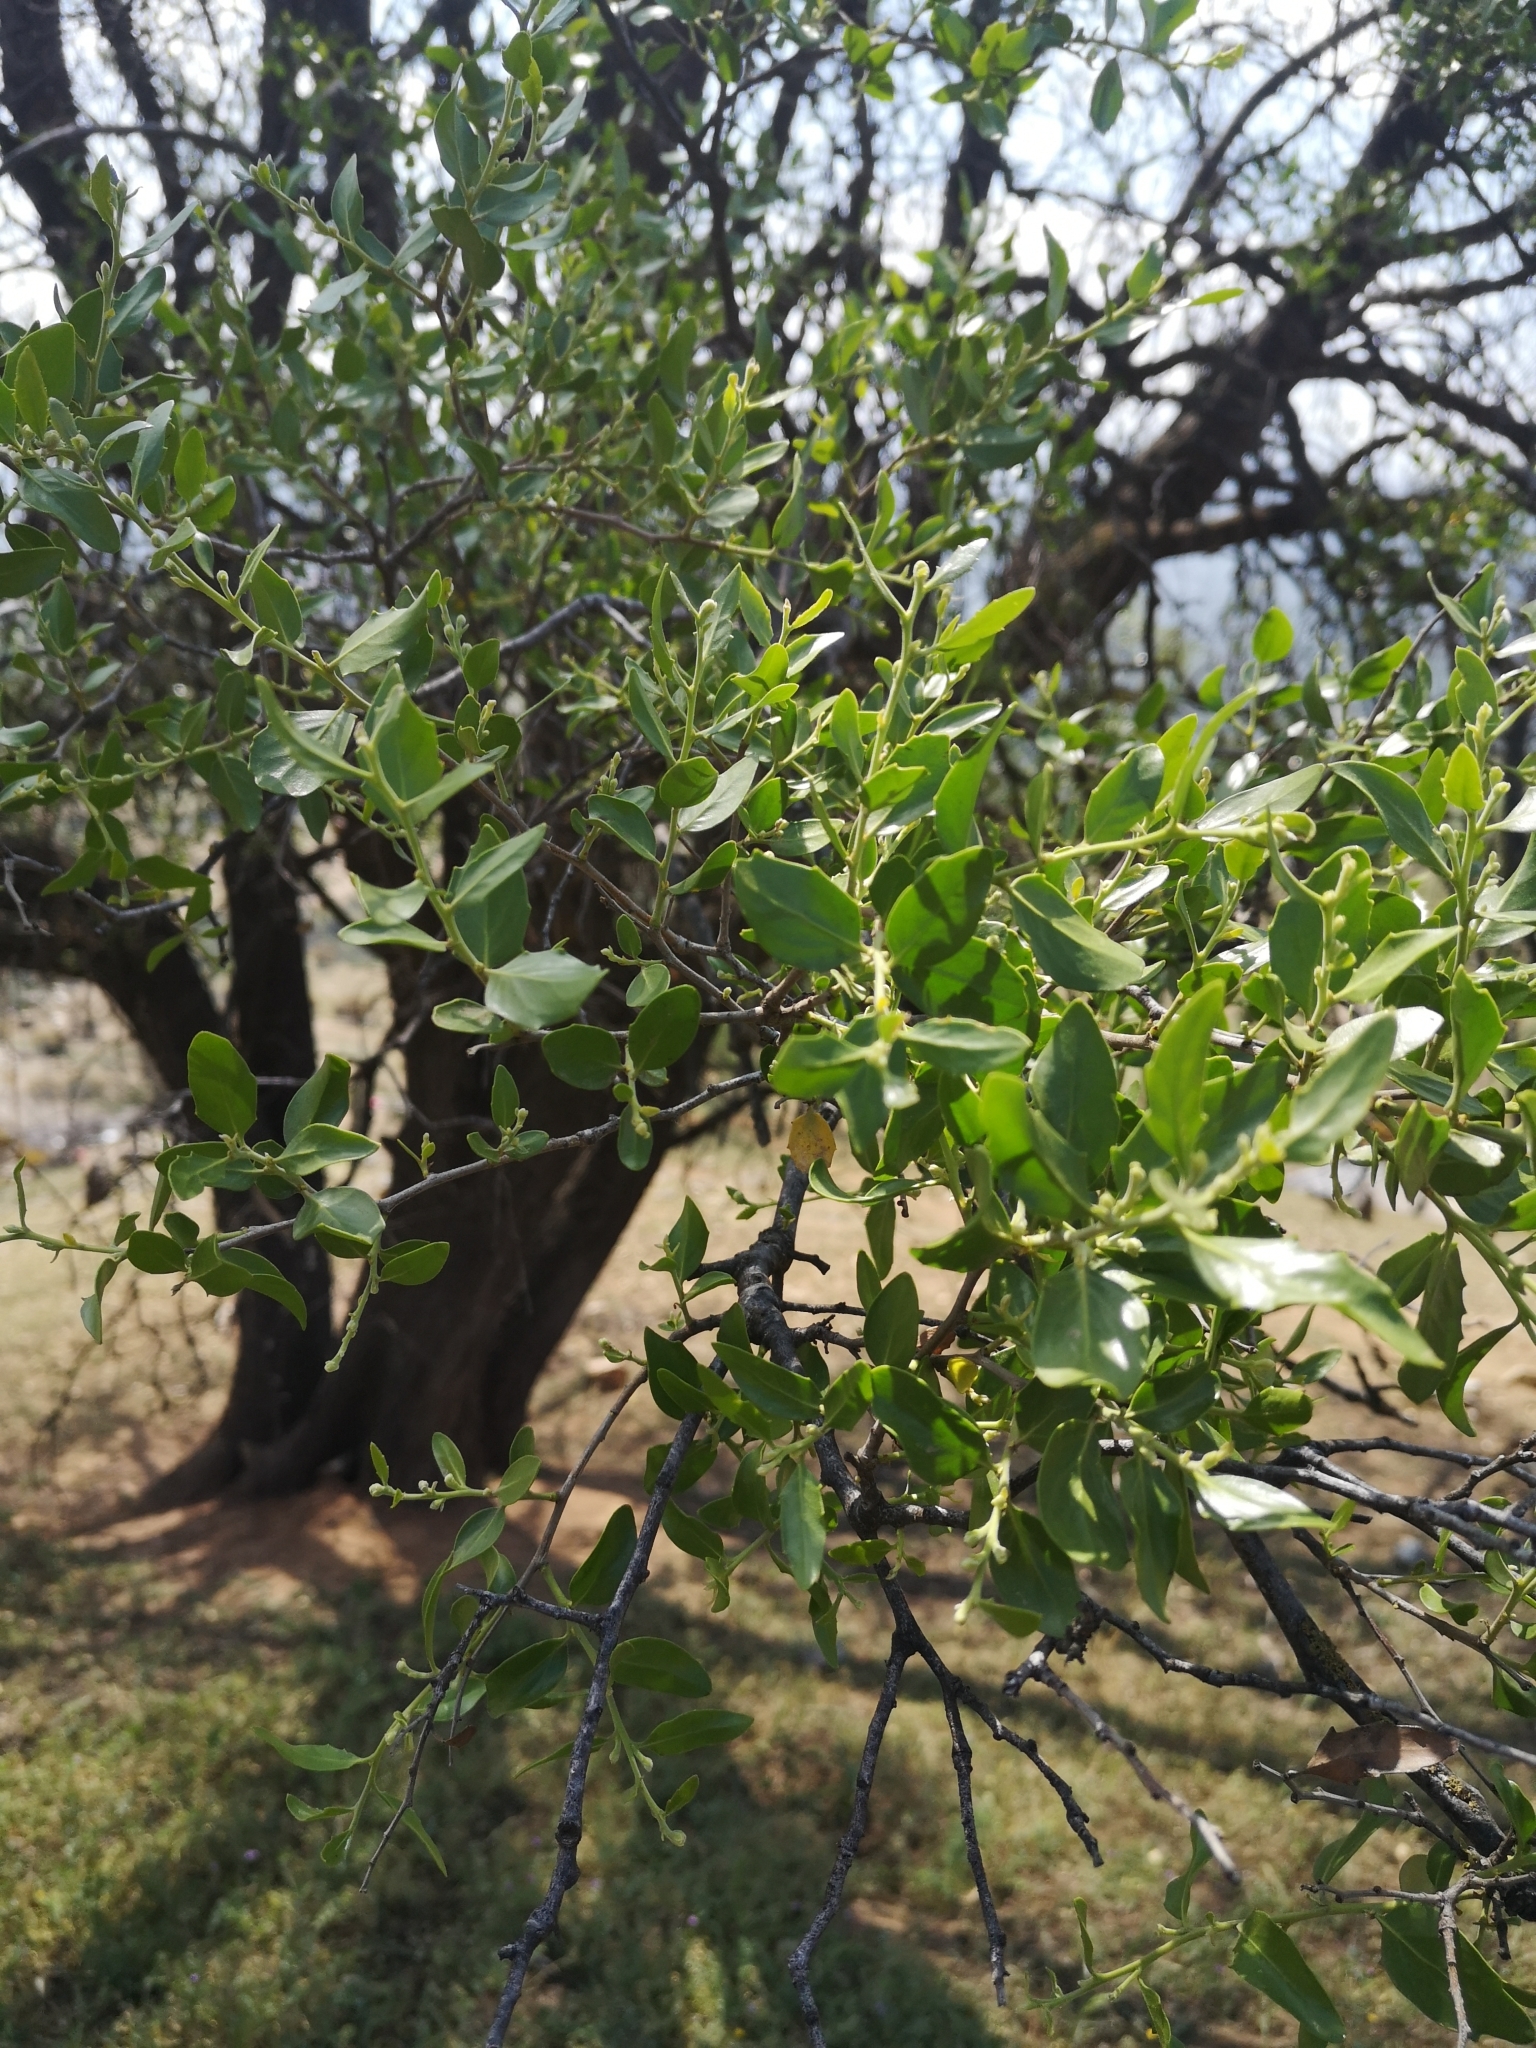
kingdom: Plantae
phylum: Tracheophyta
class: Magnoliopsida
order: Fabales
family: Quillajaceae
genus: Quillaja
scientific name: Quillaja saponaria
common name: Murillo's-bark
